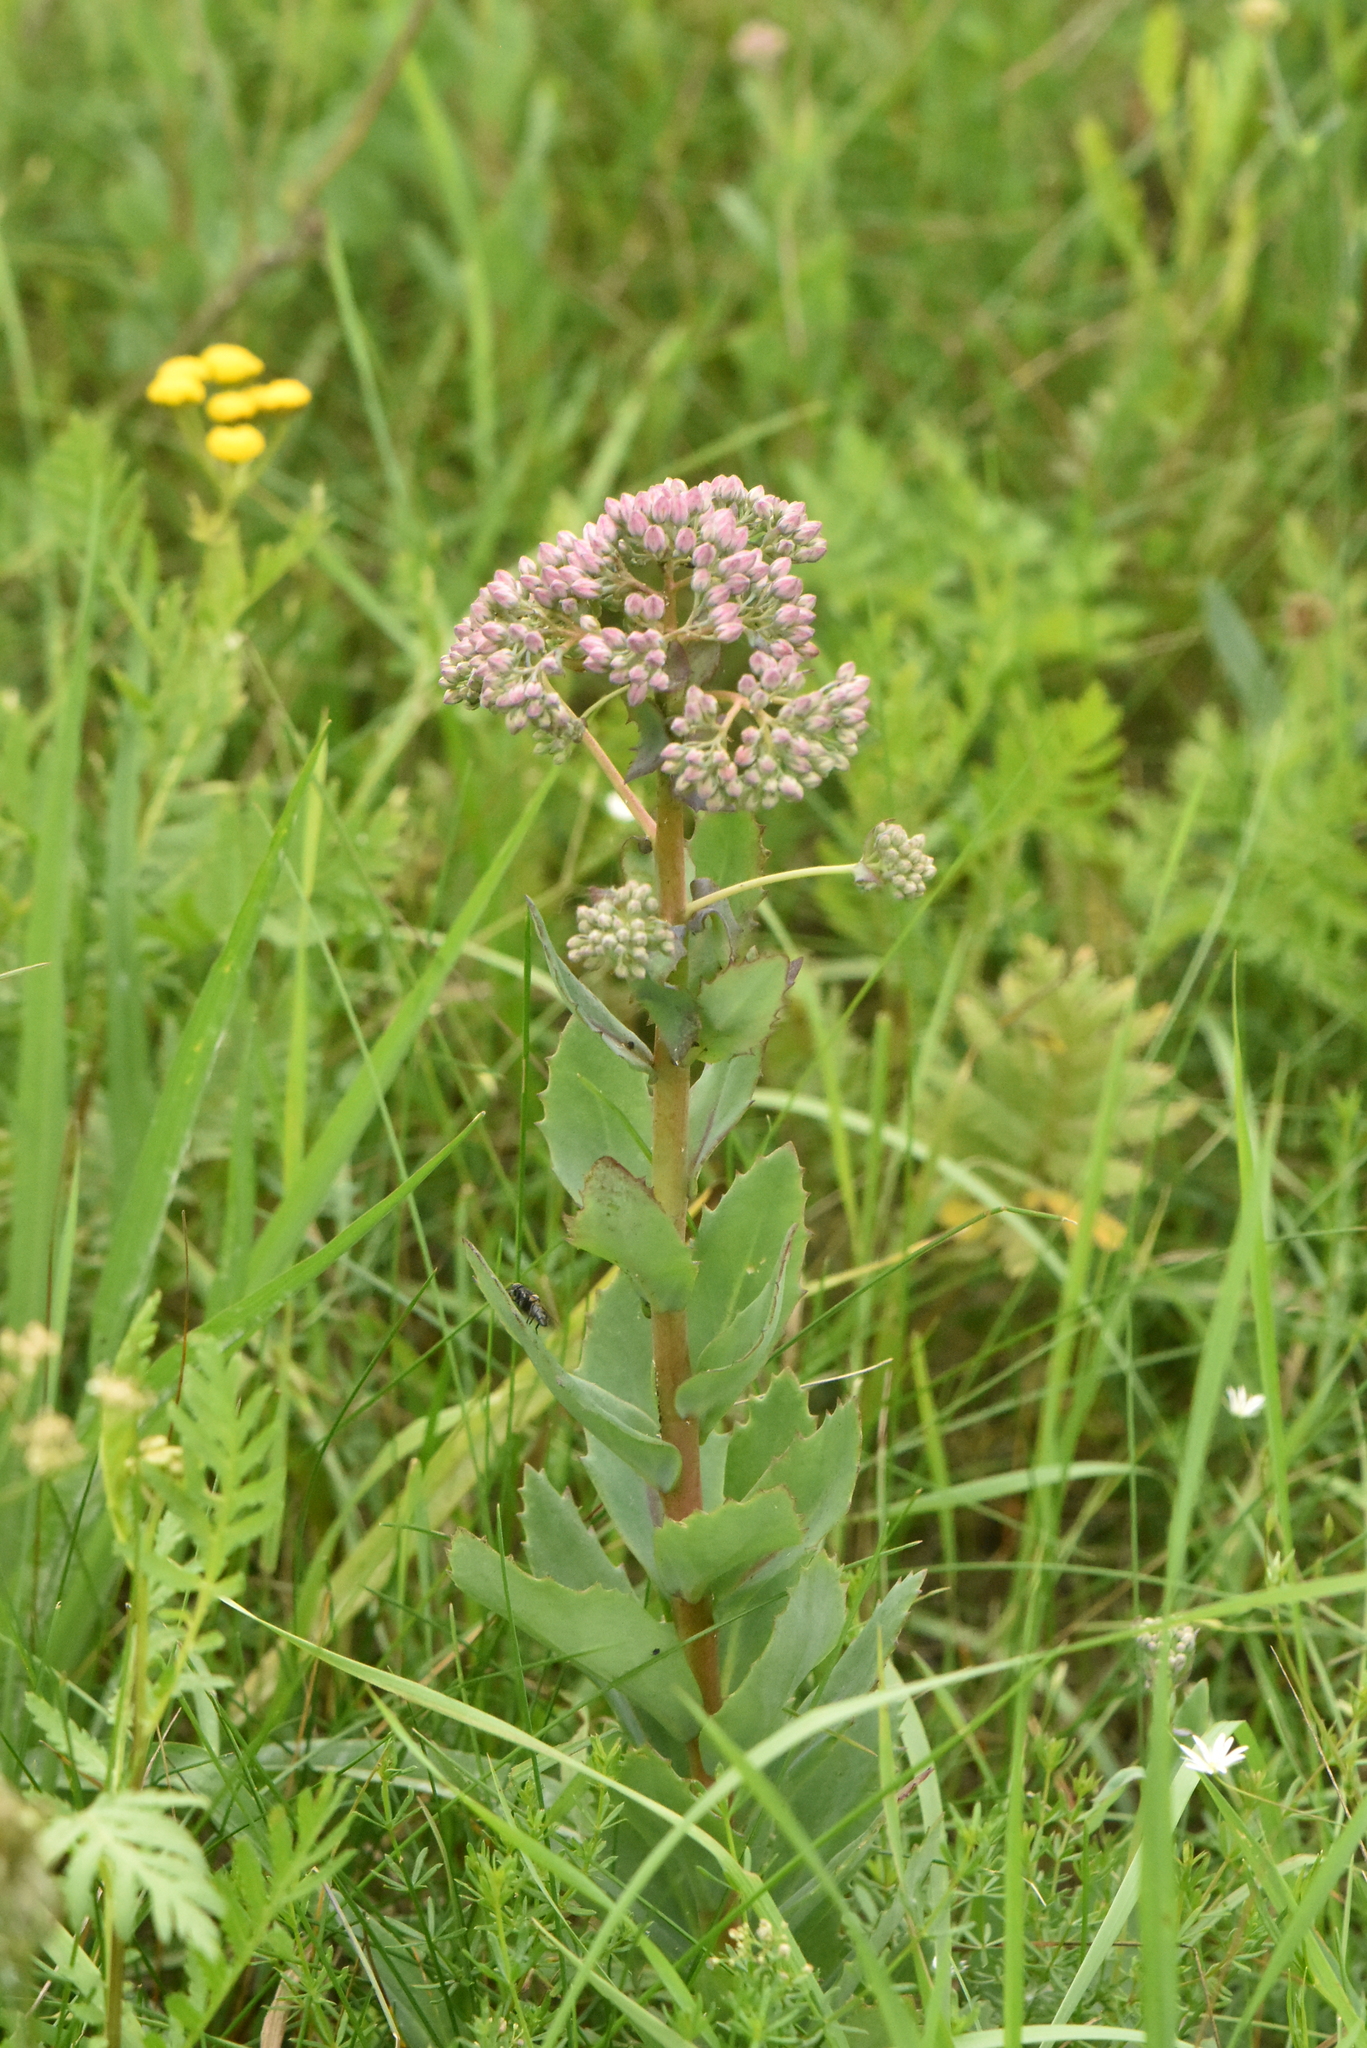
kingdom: Plantae
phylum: Tracheophyta
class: Magnoliopsida
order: Saxifragales
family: Crassulaceae
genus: Hylotelephium
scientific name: Hylotelephium telephium
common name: Live-forever
